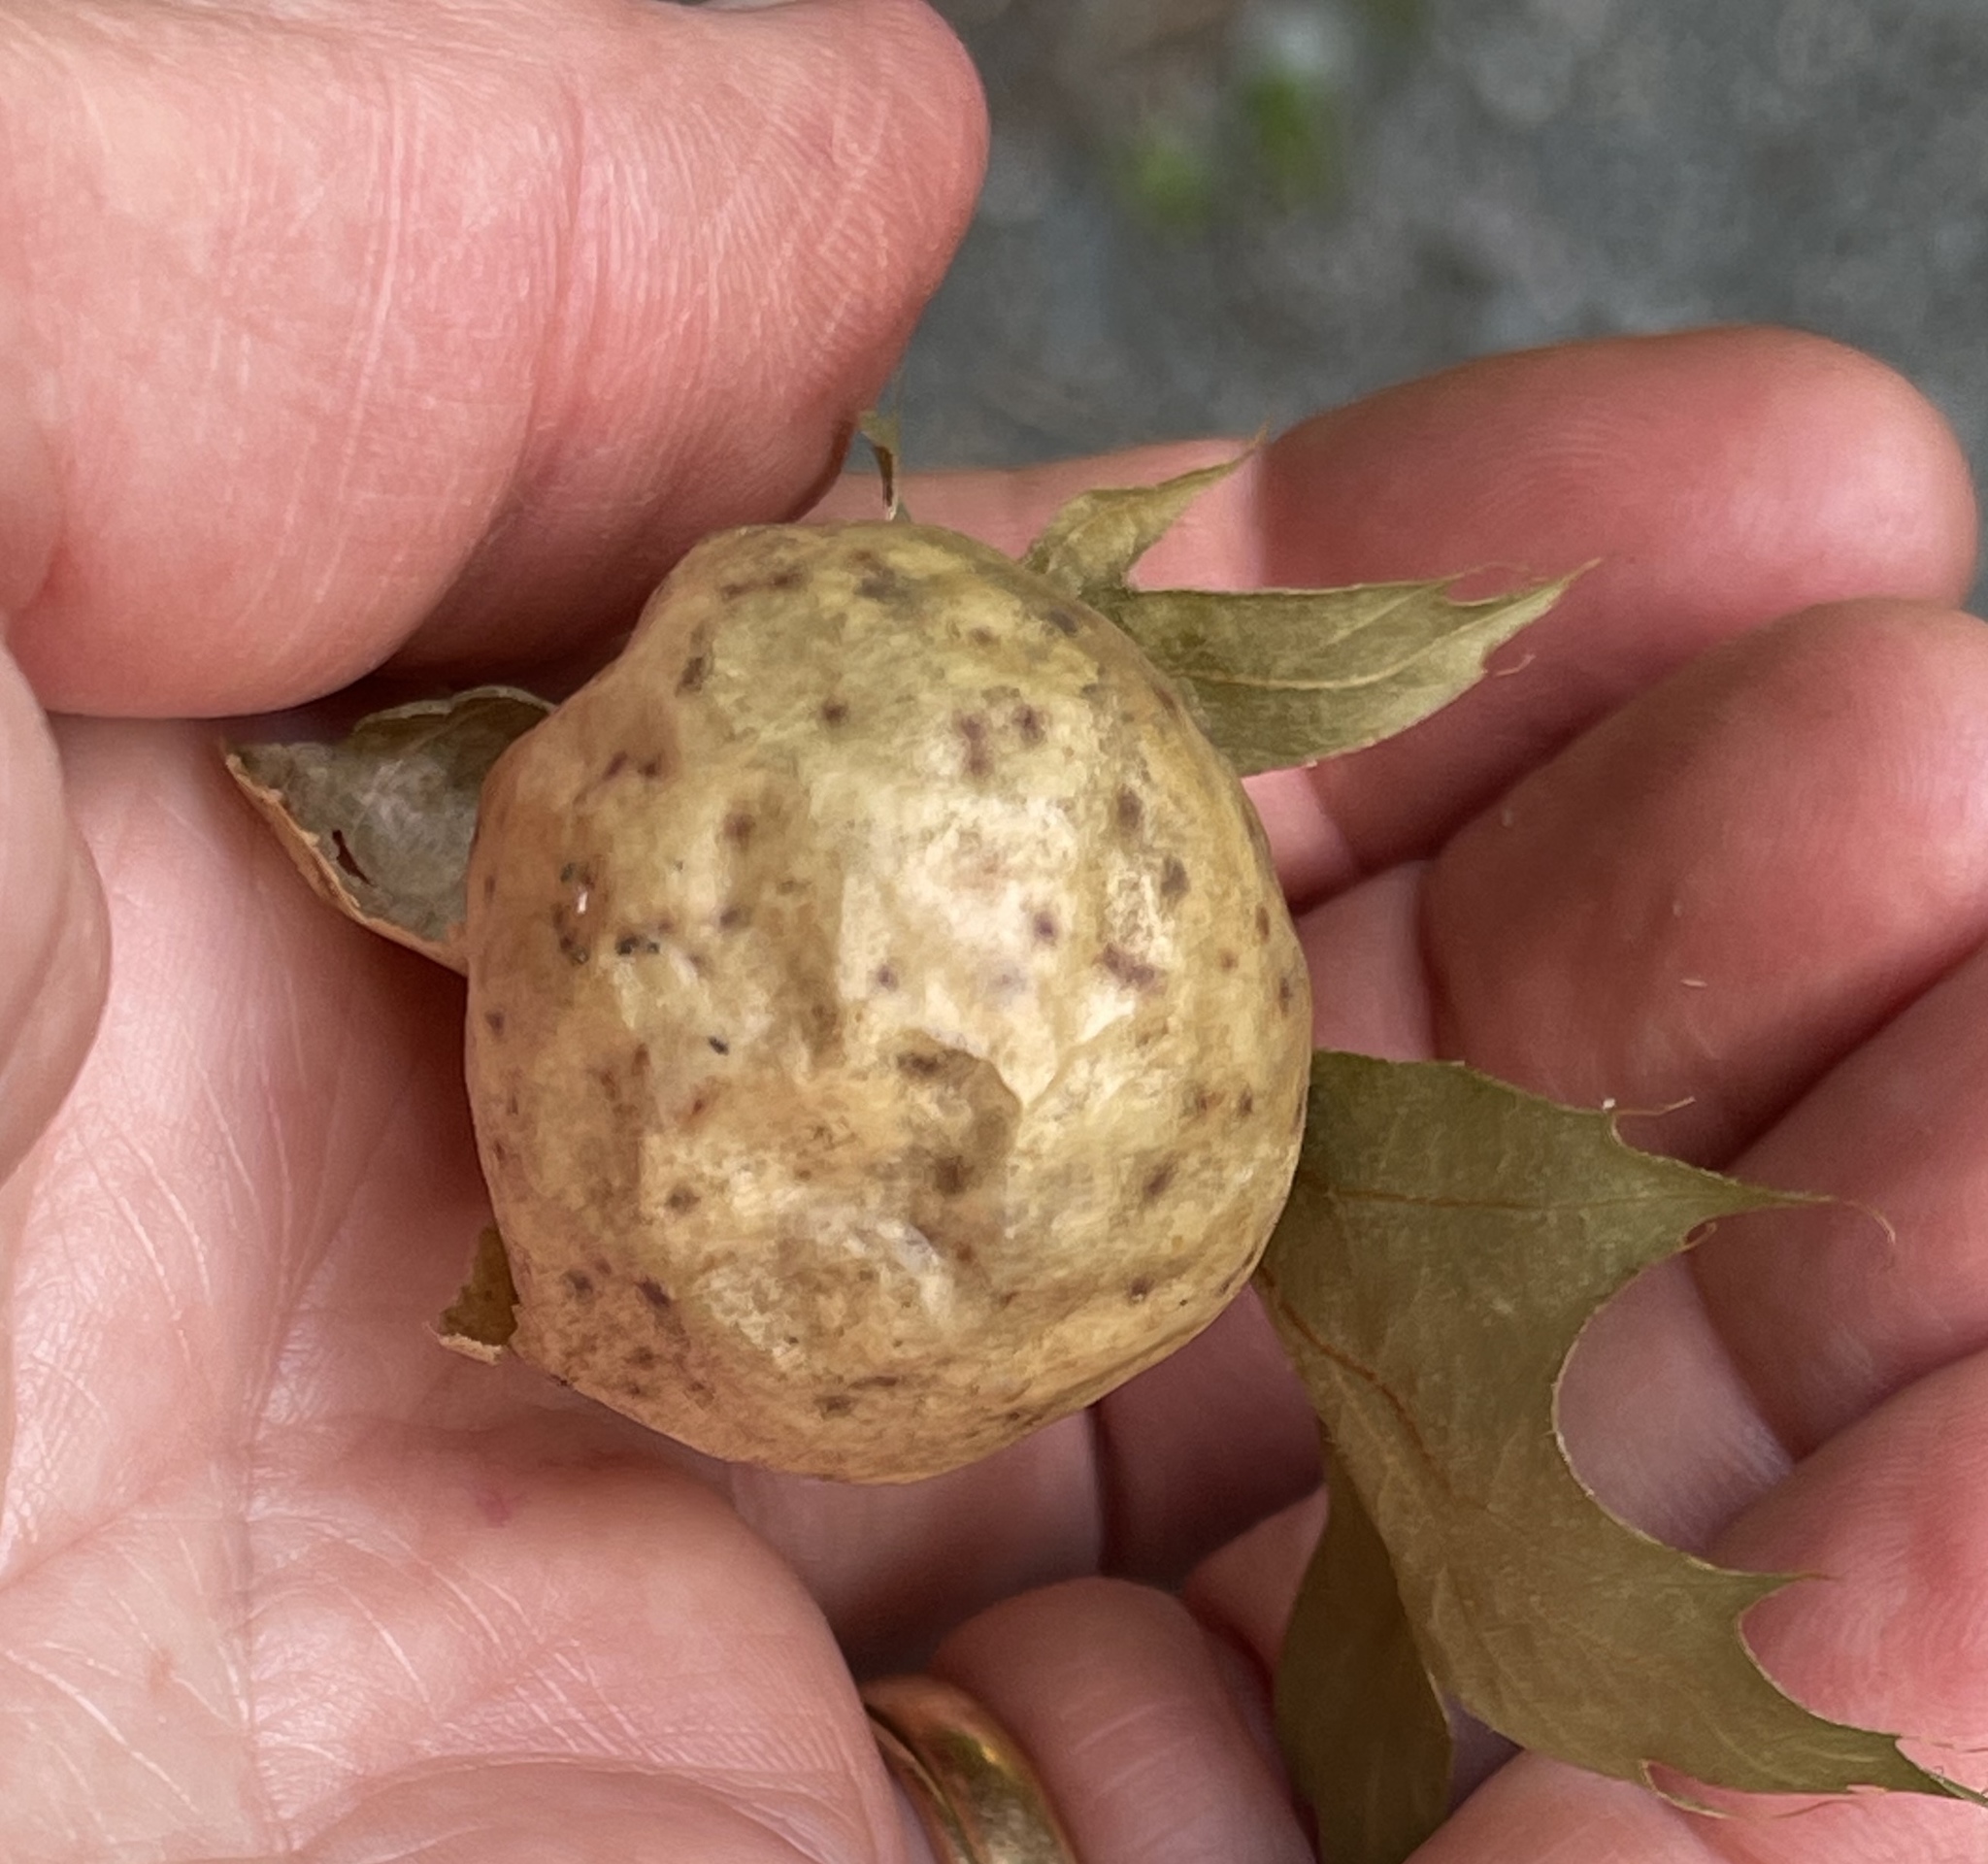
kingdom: Animalia
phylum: Arthropoda
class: Insecta
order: Hymenoptera
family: Cynipidae
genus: Amphibolips
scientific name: Amphibolips
